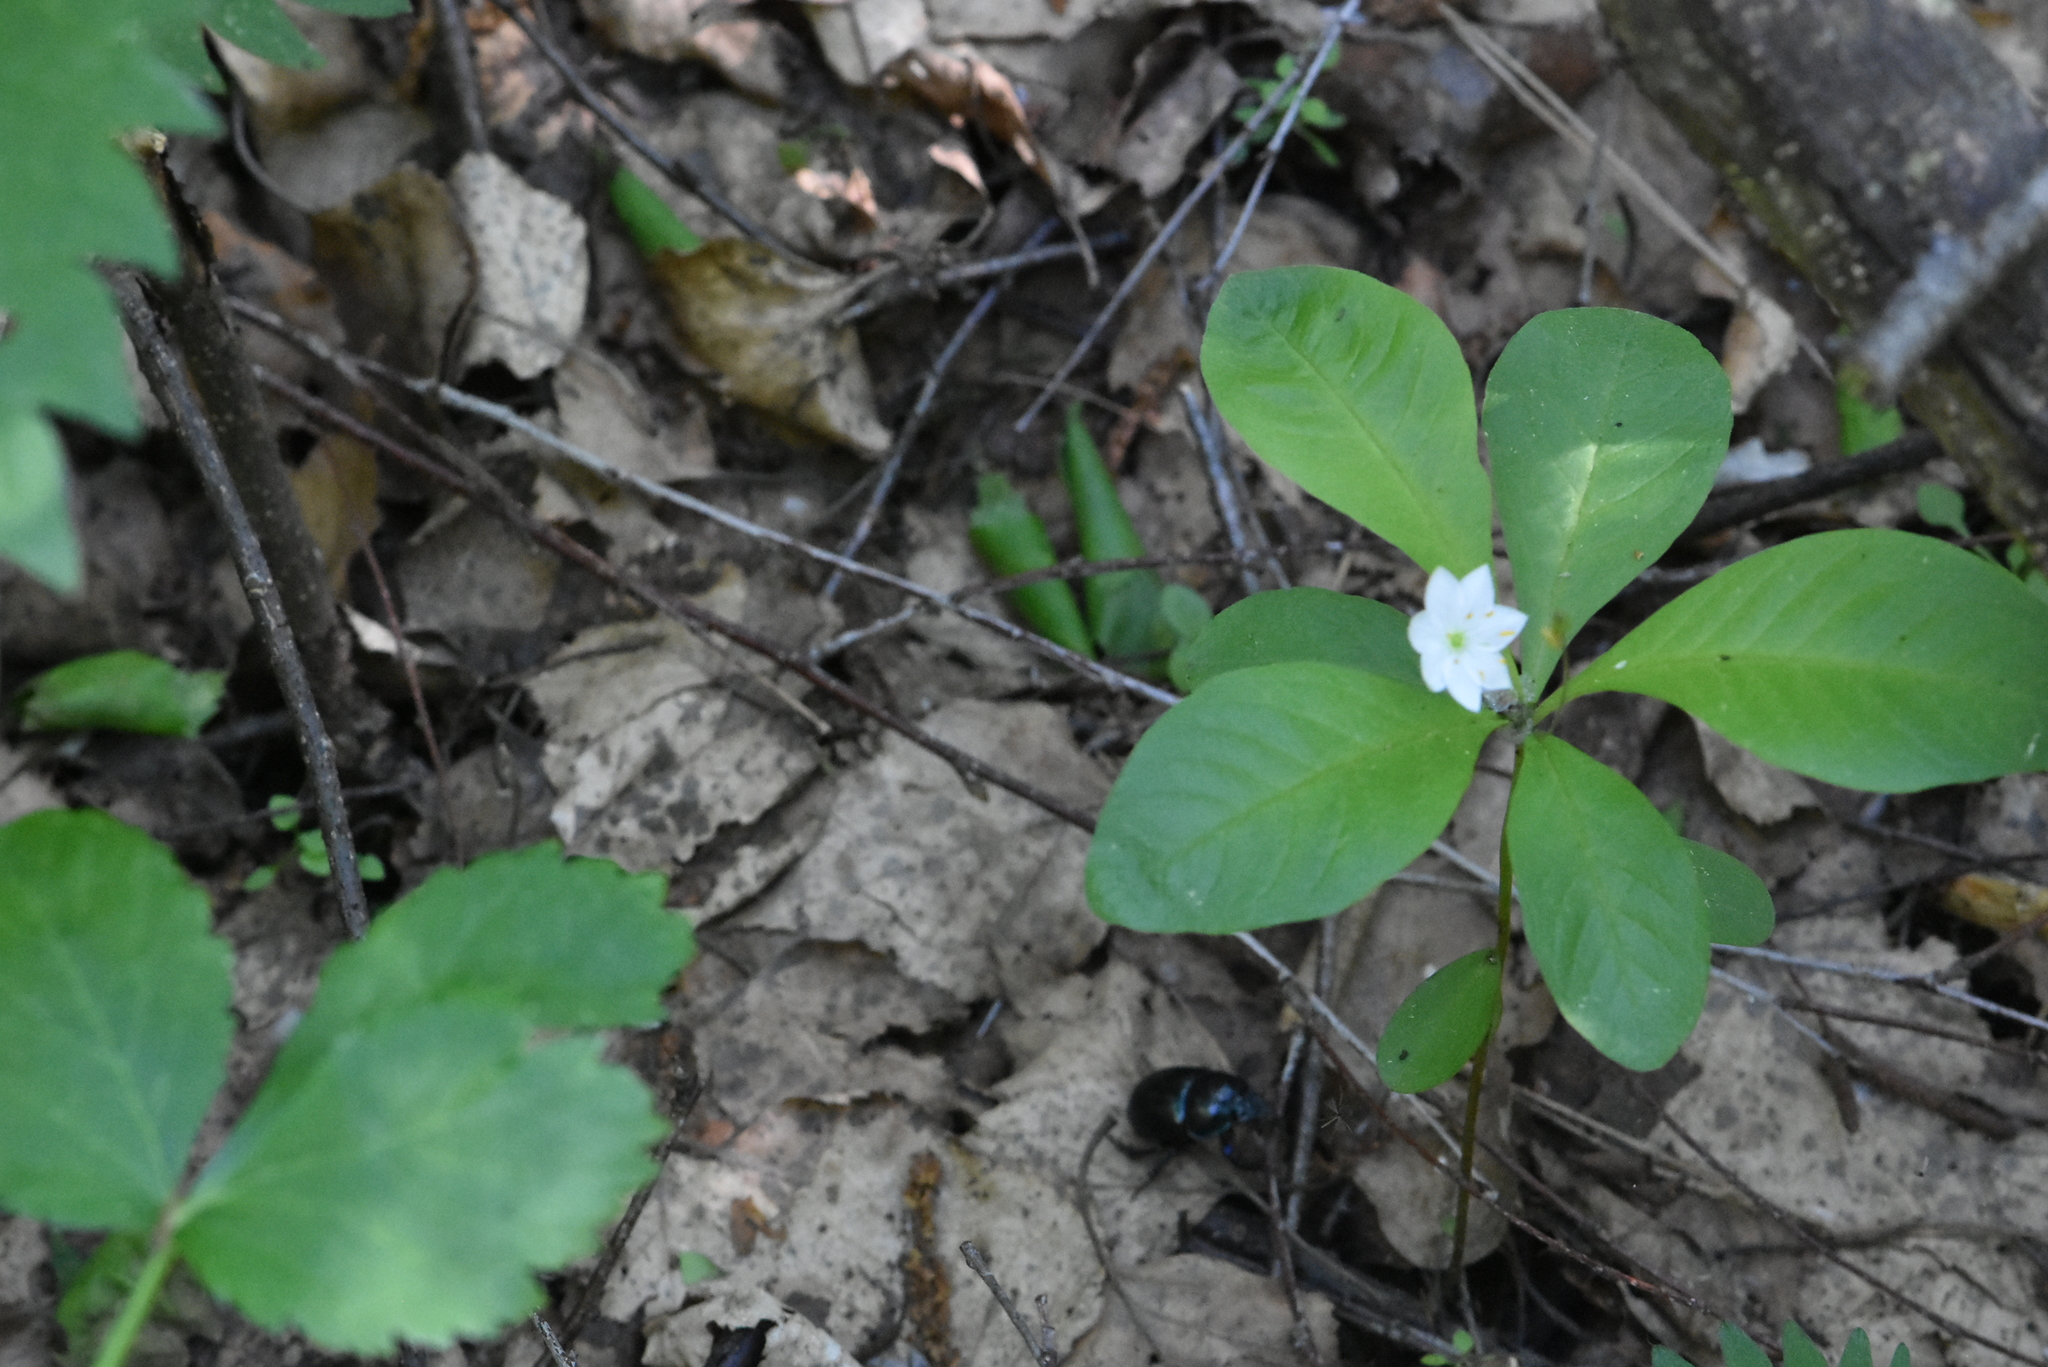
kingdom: Plantae
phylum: Tracheophyta
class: Magnoliopsida
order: Ericales
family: Primulaceae
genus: Lysimachia
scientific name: Lysimachia europaea
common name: Arctic starflower
